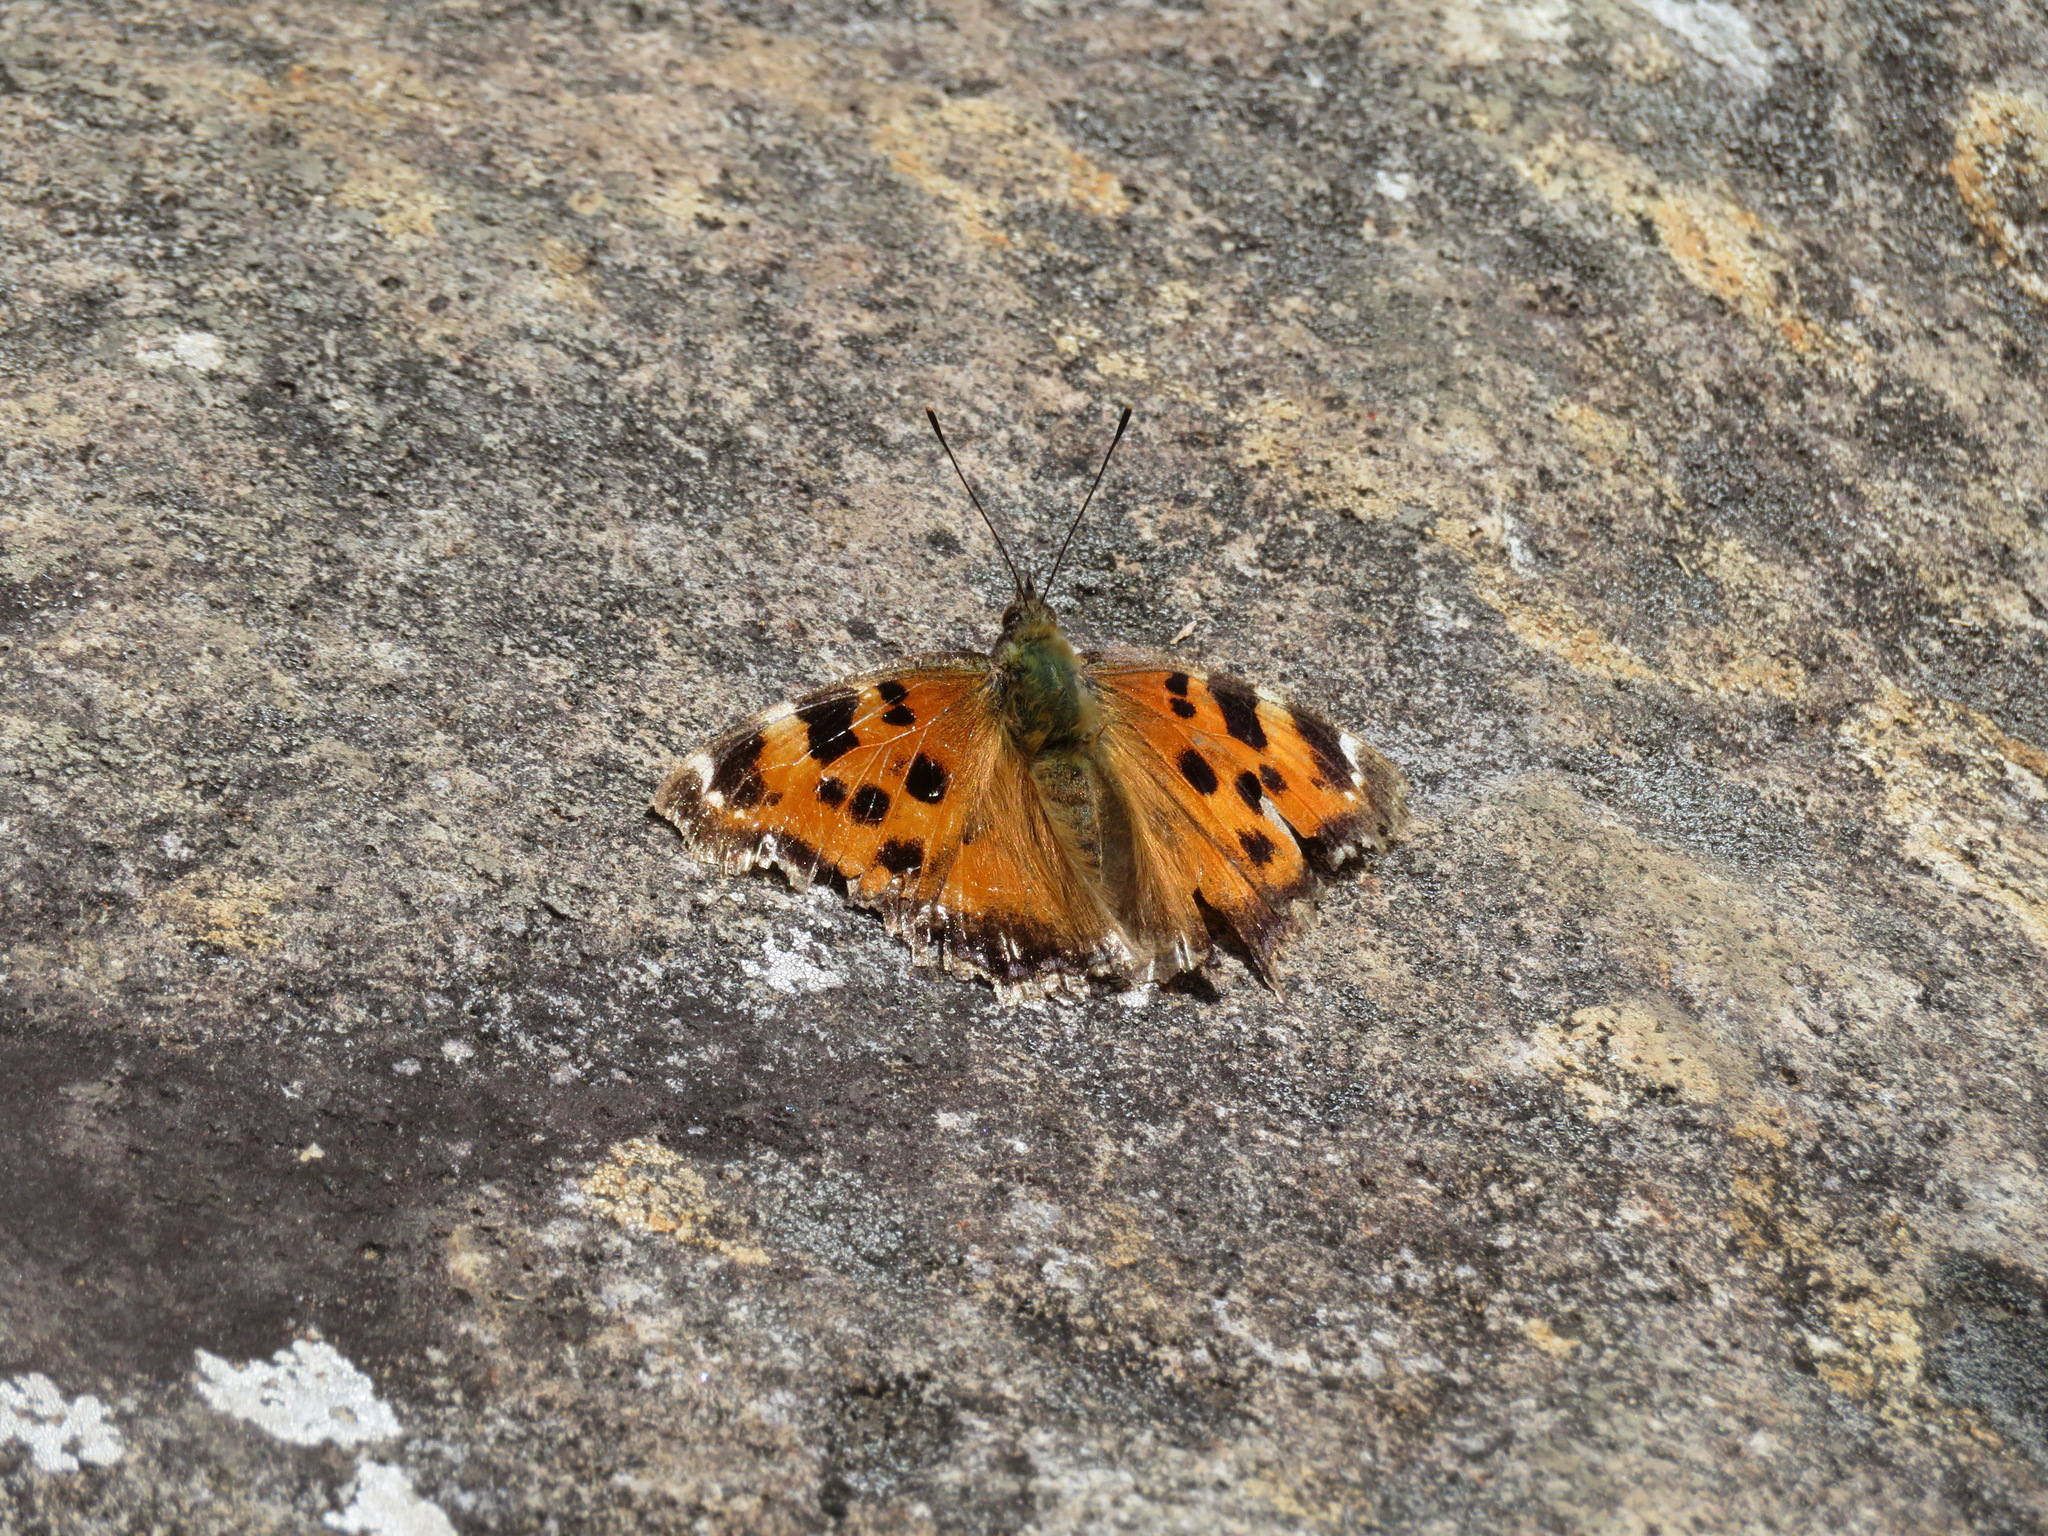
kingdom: Animalia
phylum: Arthropoda
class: Insecta
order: Lepidoptera
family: Nymphalidae
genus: Nymphalis
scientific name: Nymphalis xanthomelas
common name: Scarce tortoiseshell
